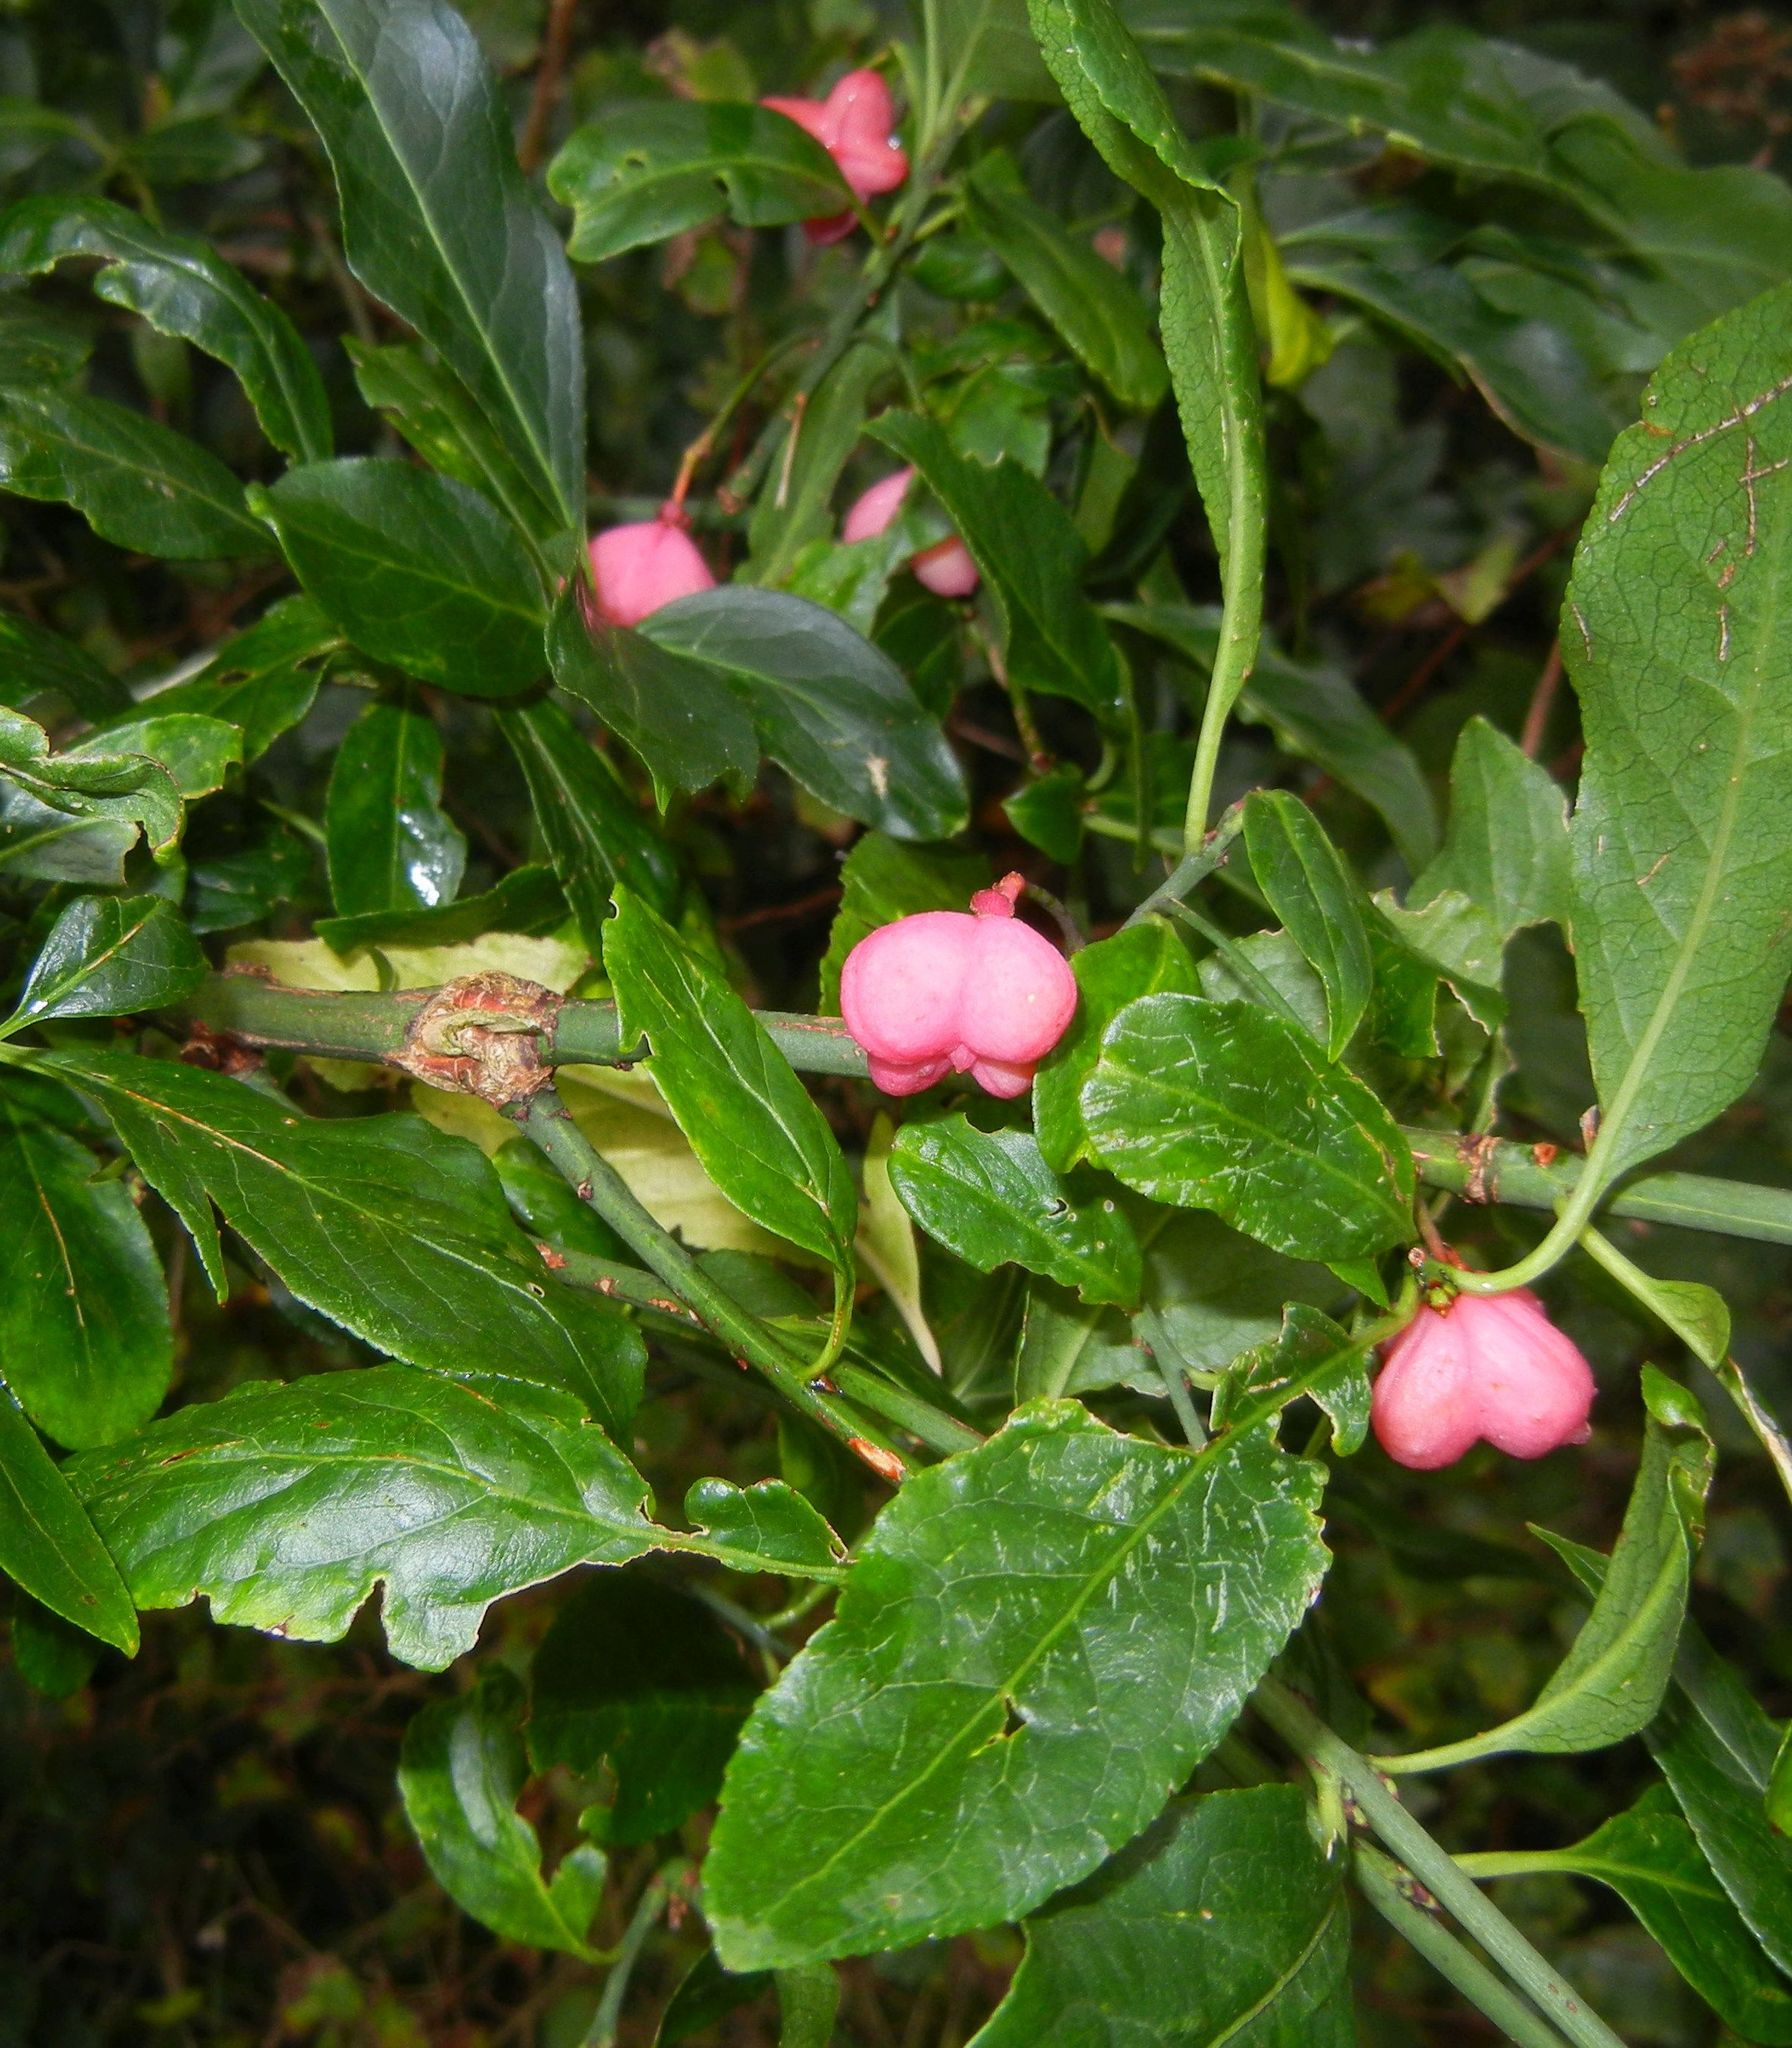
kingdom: Plantae
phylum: Tracheophyta
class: Magnoliopsida
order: Celastrales
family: Celastraceae
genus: Euonymus
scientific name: Euonymus europaeus
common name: Spindle
